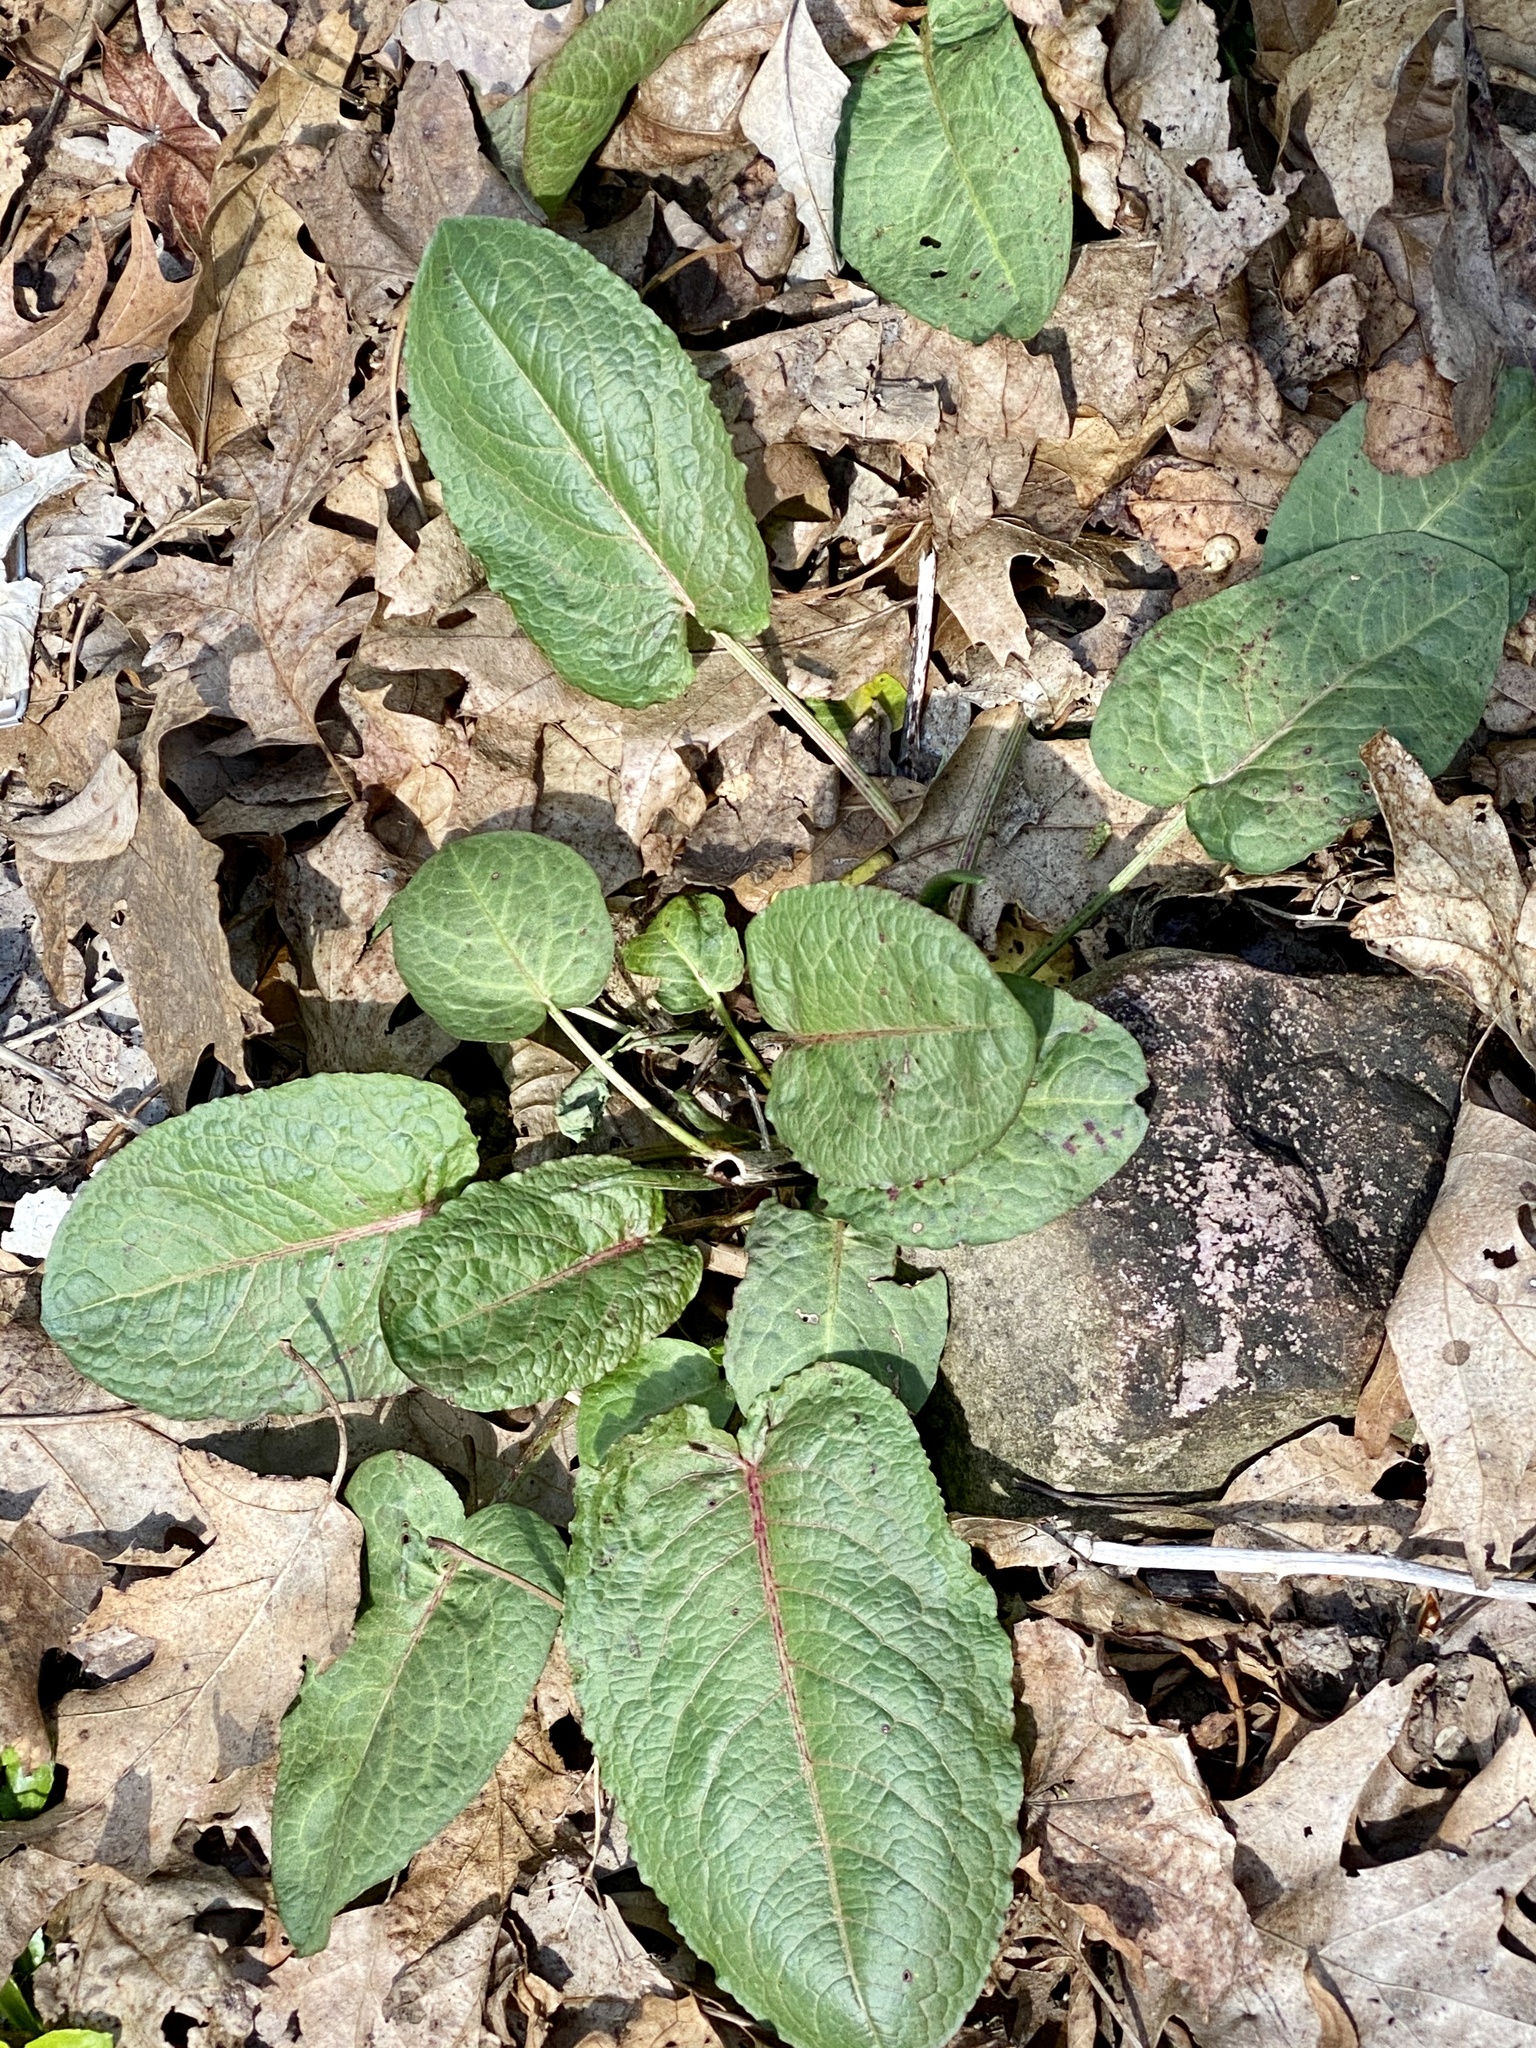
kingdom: Plantae
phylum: Tracheophyta
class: Magnoliopsida
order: Caryophyllales
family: Polygonaceae
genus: Rumex
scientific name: Rumex obtusifolius
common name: Bitter dock
